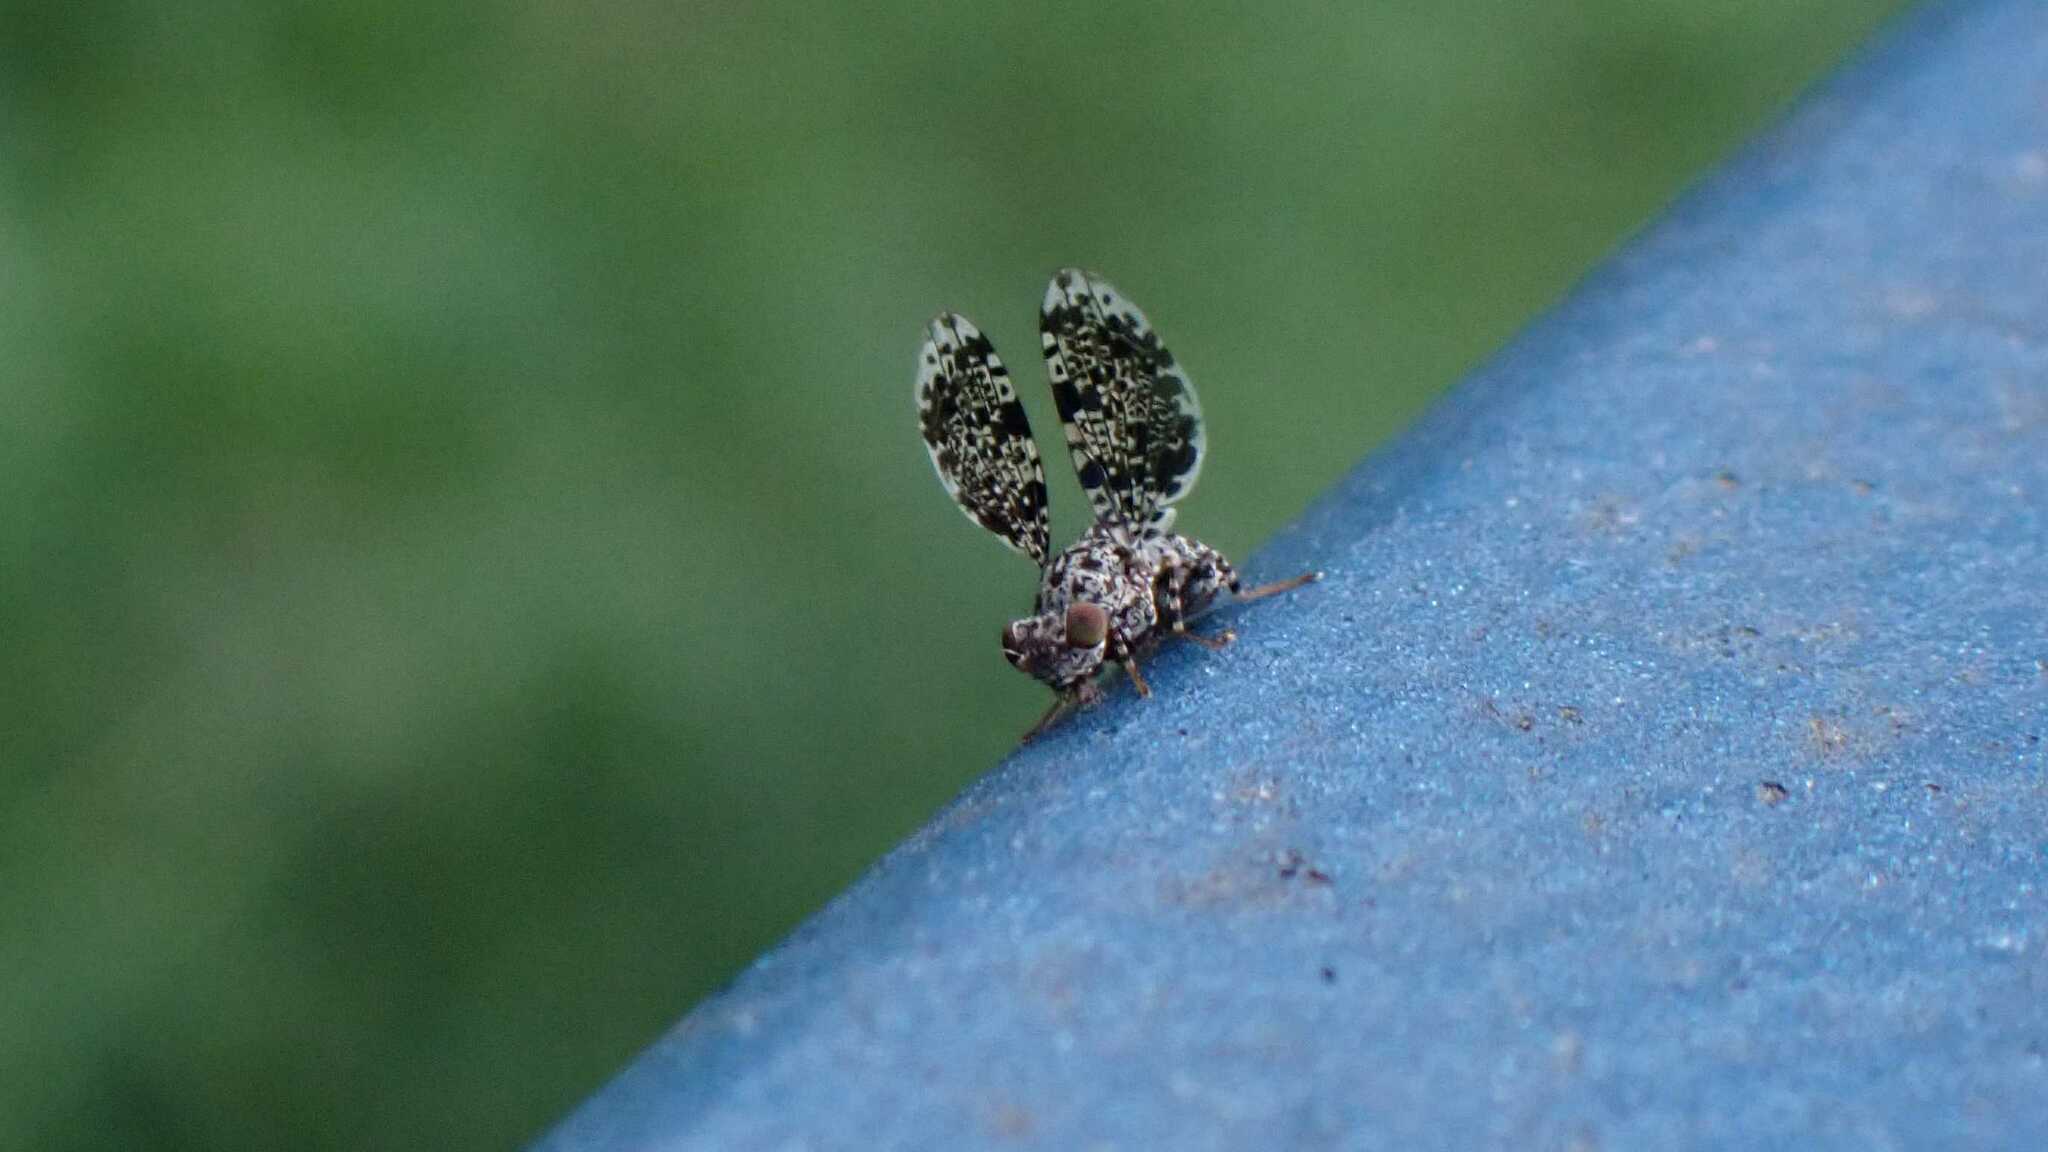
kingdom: Animalia
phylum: Arthropoda
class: Insecta
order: Diptera
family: Ulidiidae
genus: Callopistromyia
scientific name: Callopistromyia annulipes
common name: Peacock fly
